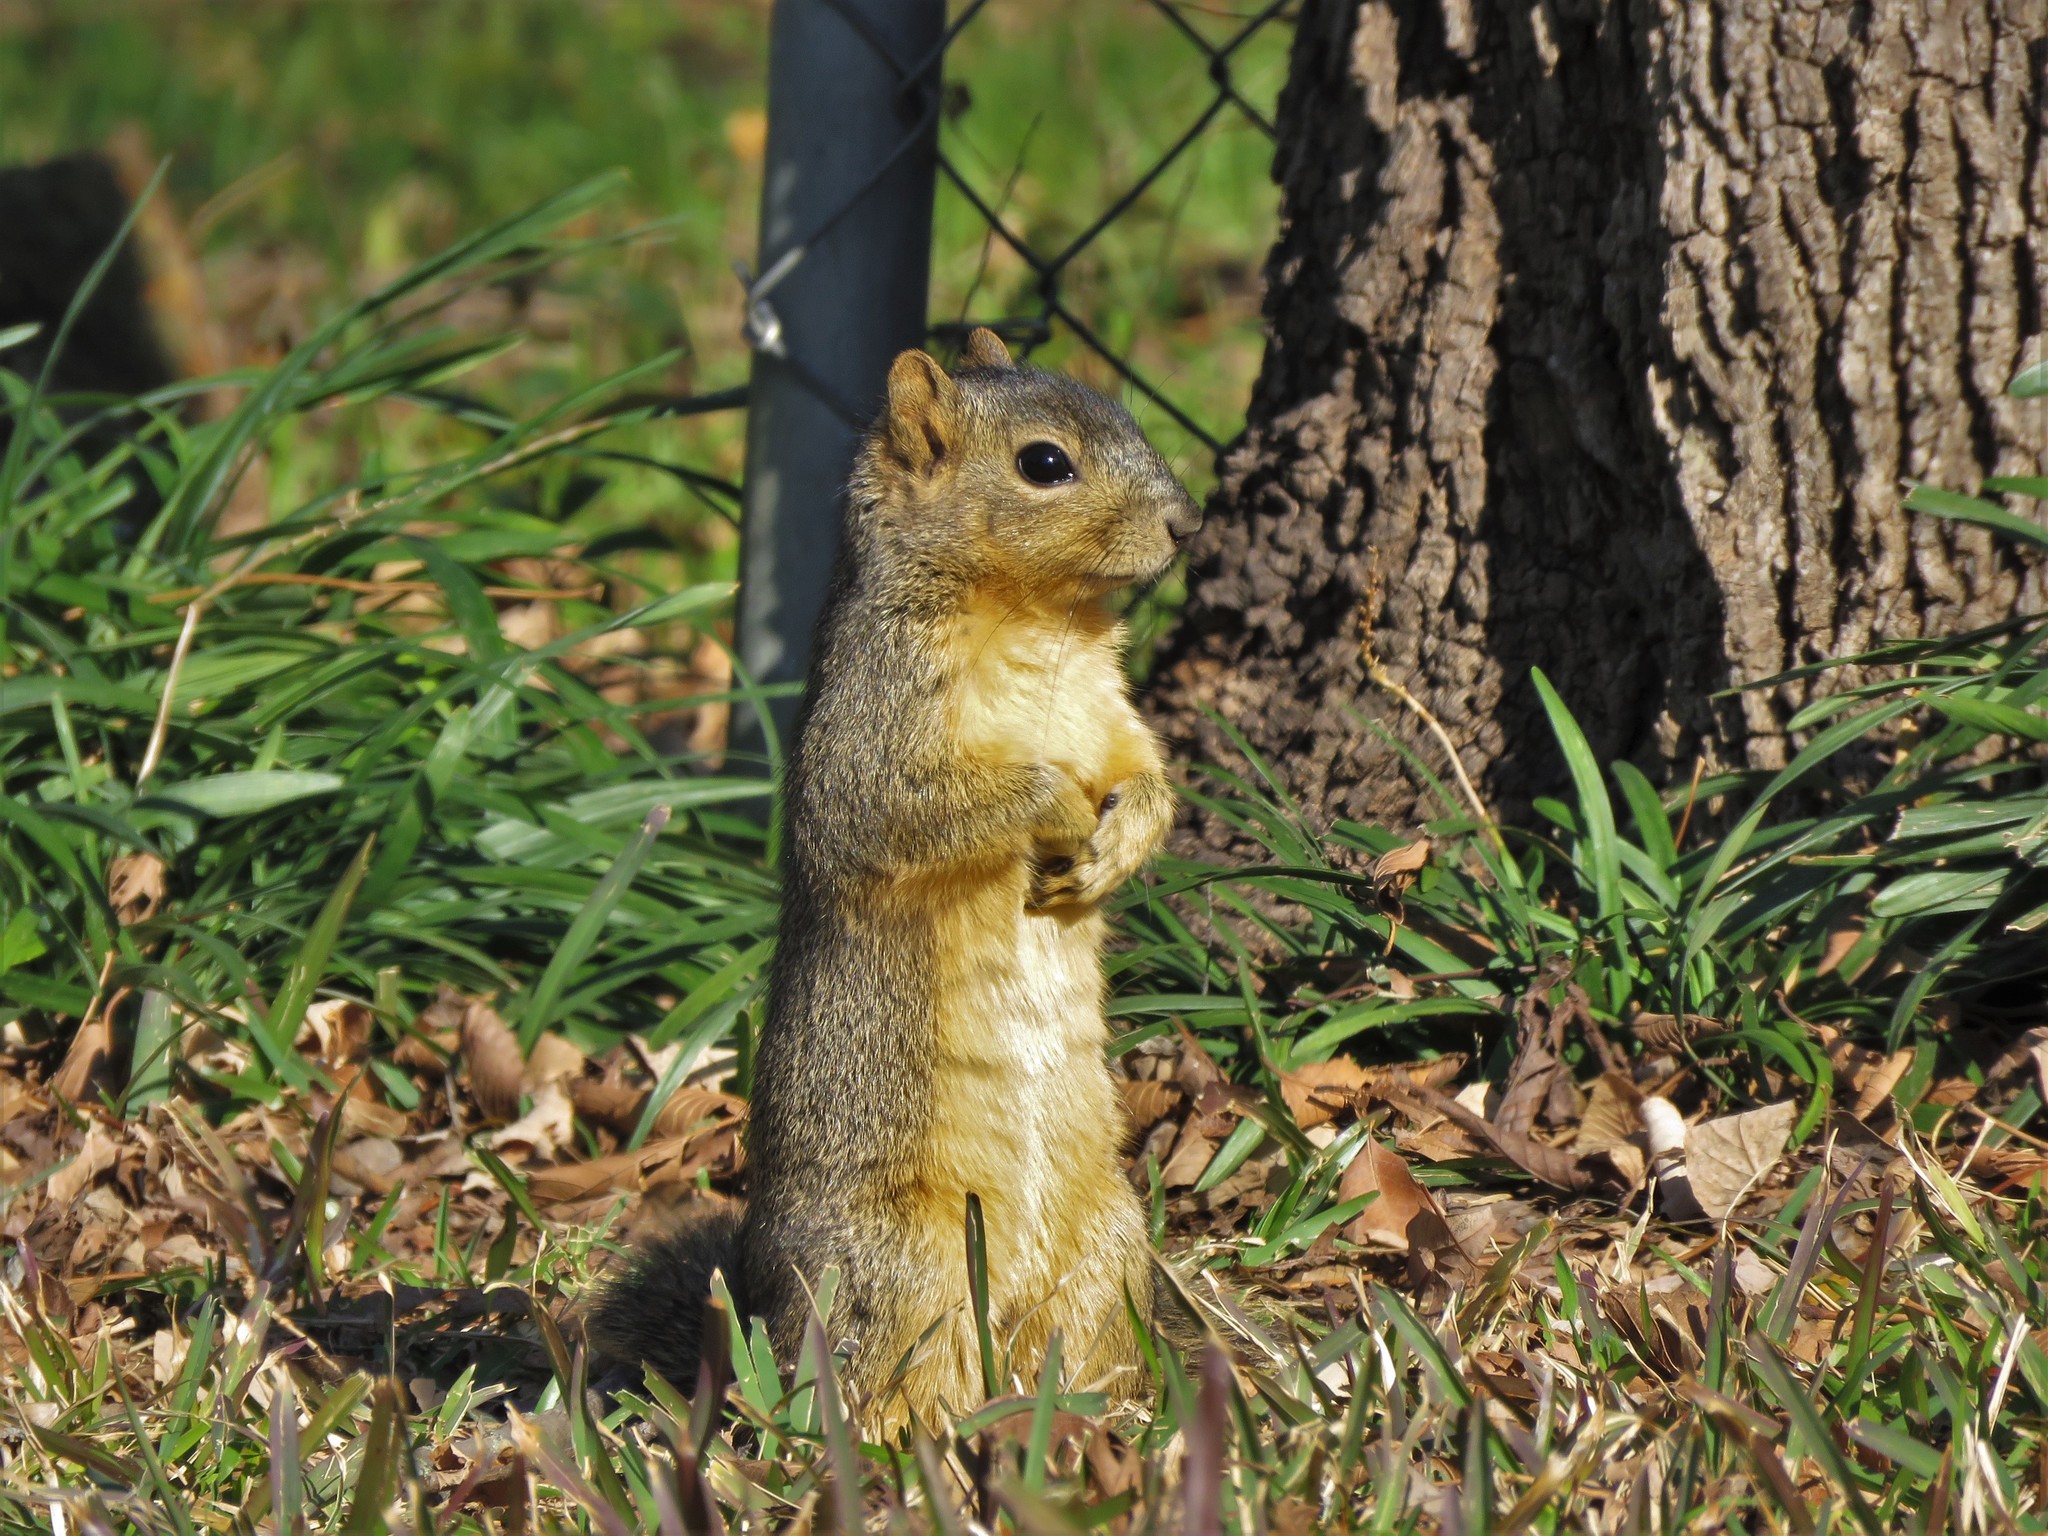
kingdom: Animalia
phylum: Chordata
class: Mammalia
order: Rodentia
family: Sciuridae
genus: Sciurus
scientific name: Sciurus niger
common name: Fox squirrel
